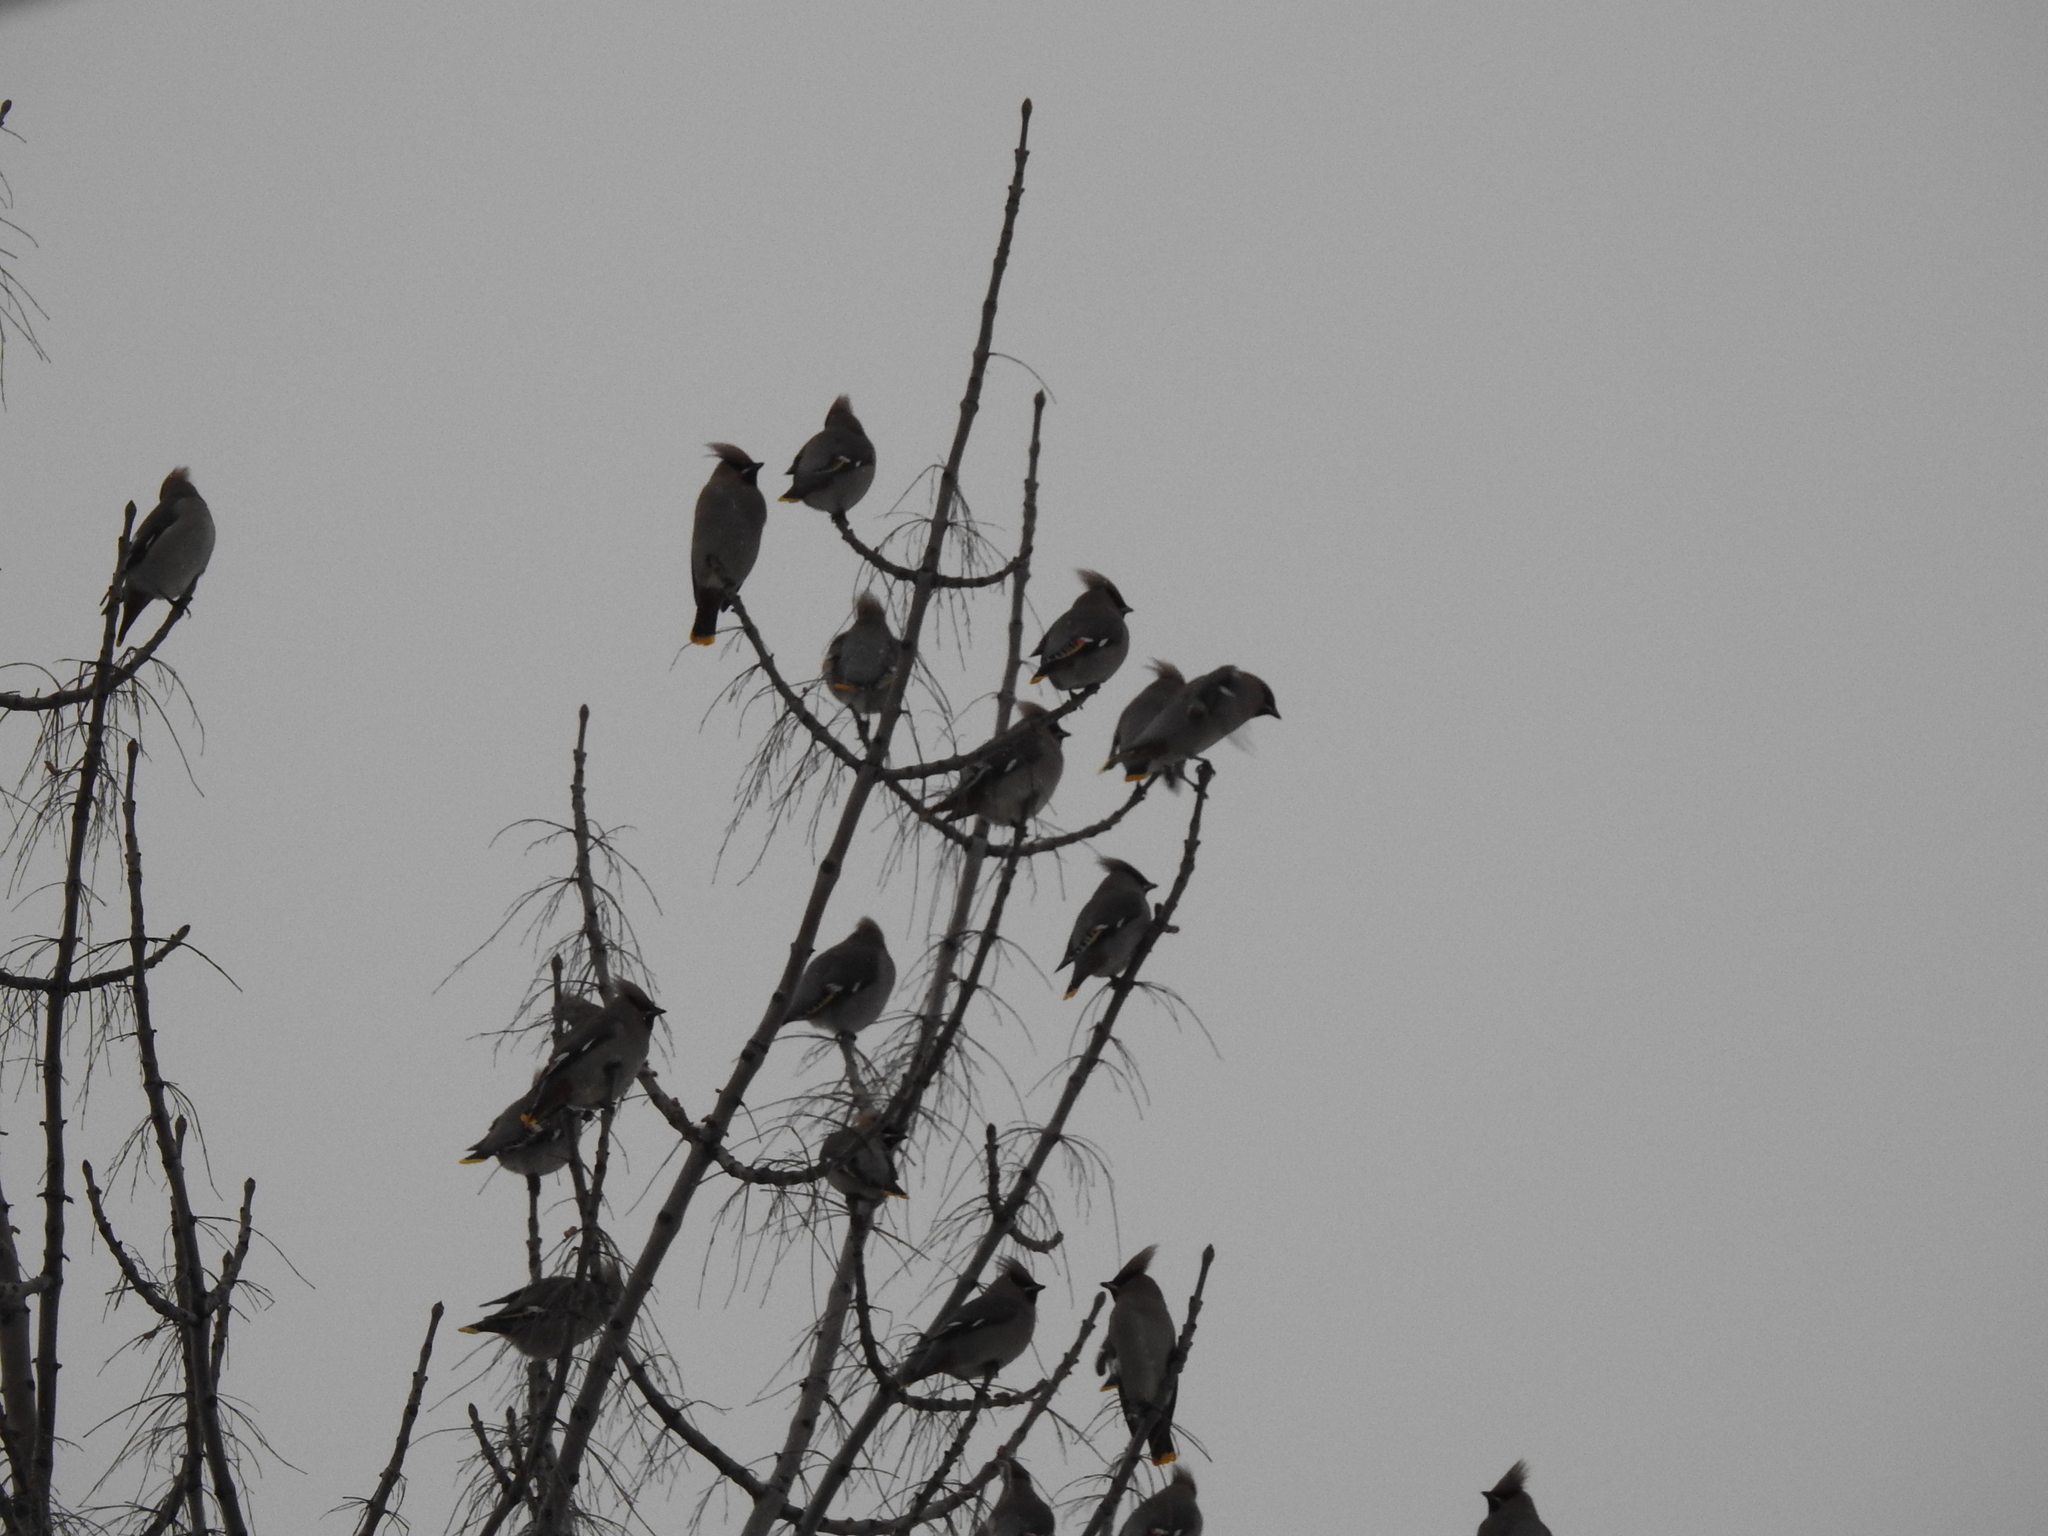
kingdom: Animalia
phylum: Chordata
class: Aves
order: Passeriformes
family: Bombycillidae
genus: Bombycilla
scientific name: Bombycilla garrulus
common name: Bohemian waxwing
